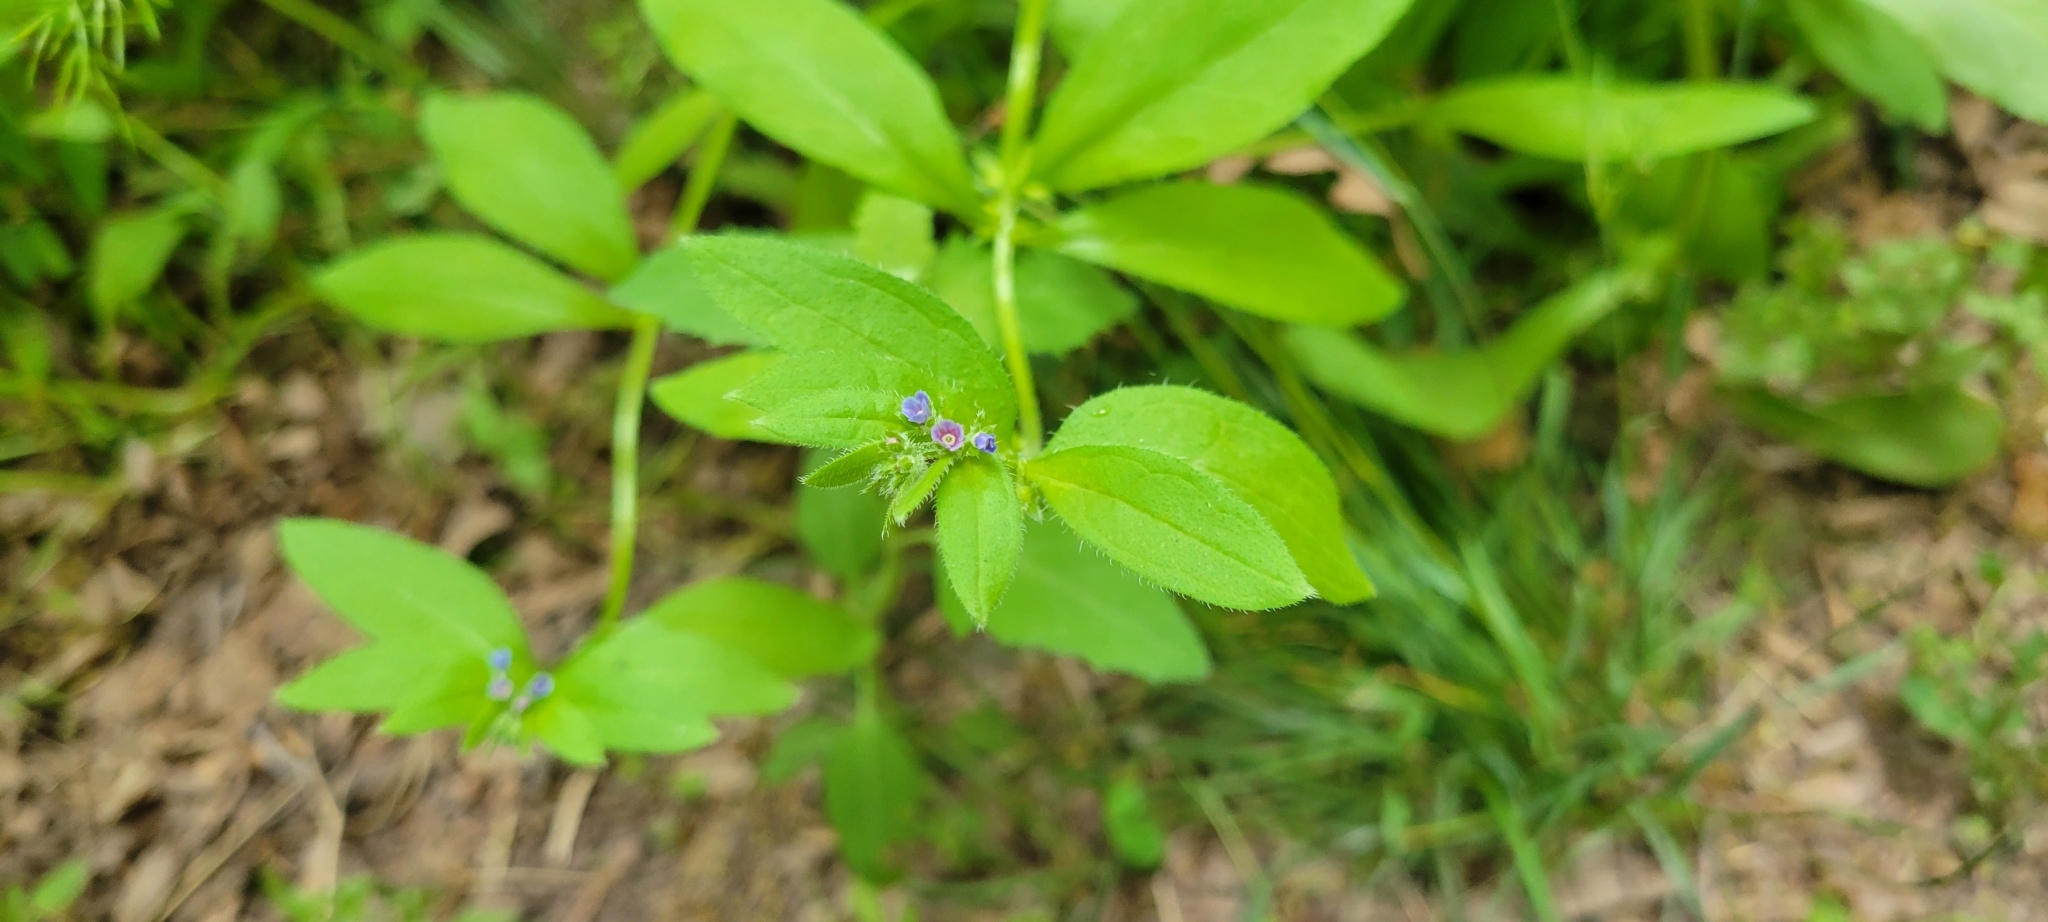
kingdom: Plantae
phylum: Tracheophyta
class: Magnoliopsida
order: Boraginales
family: Boraginaceae
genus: Asperugo
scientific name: Asperugo procumbens
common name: Madwort
